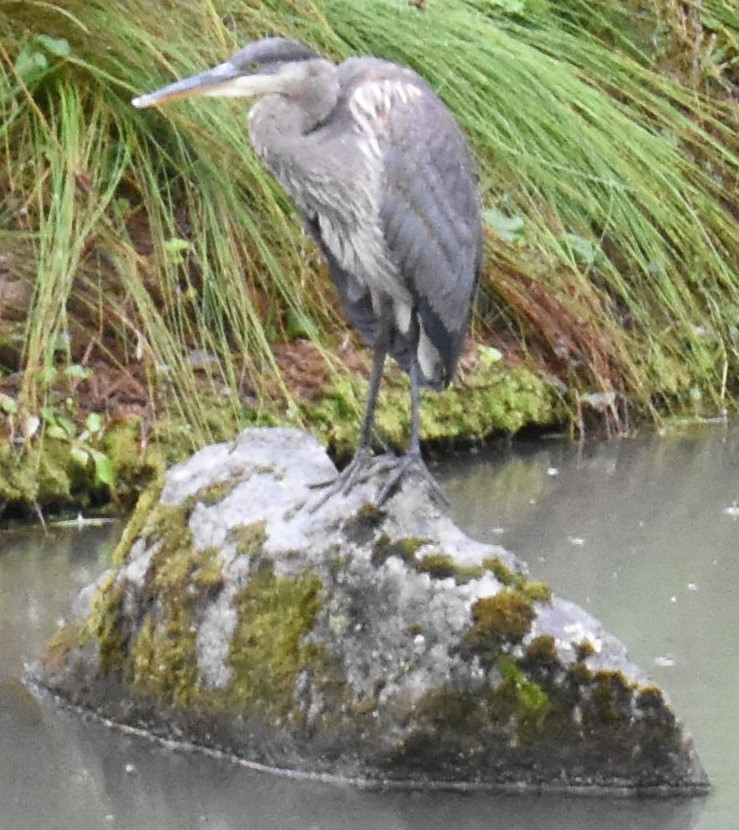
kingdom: Animalia
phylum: Chordata
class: Aves
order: Pelecaniformes
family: Ardeidae
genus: Ardea
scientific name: Ardea herodias
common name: Great blue heron
